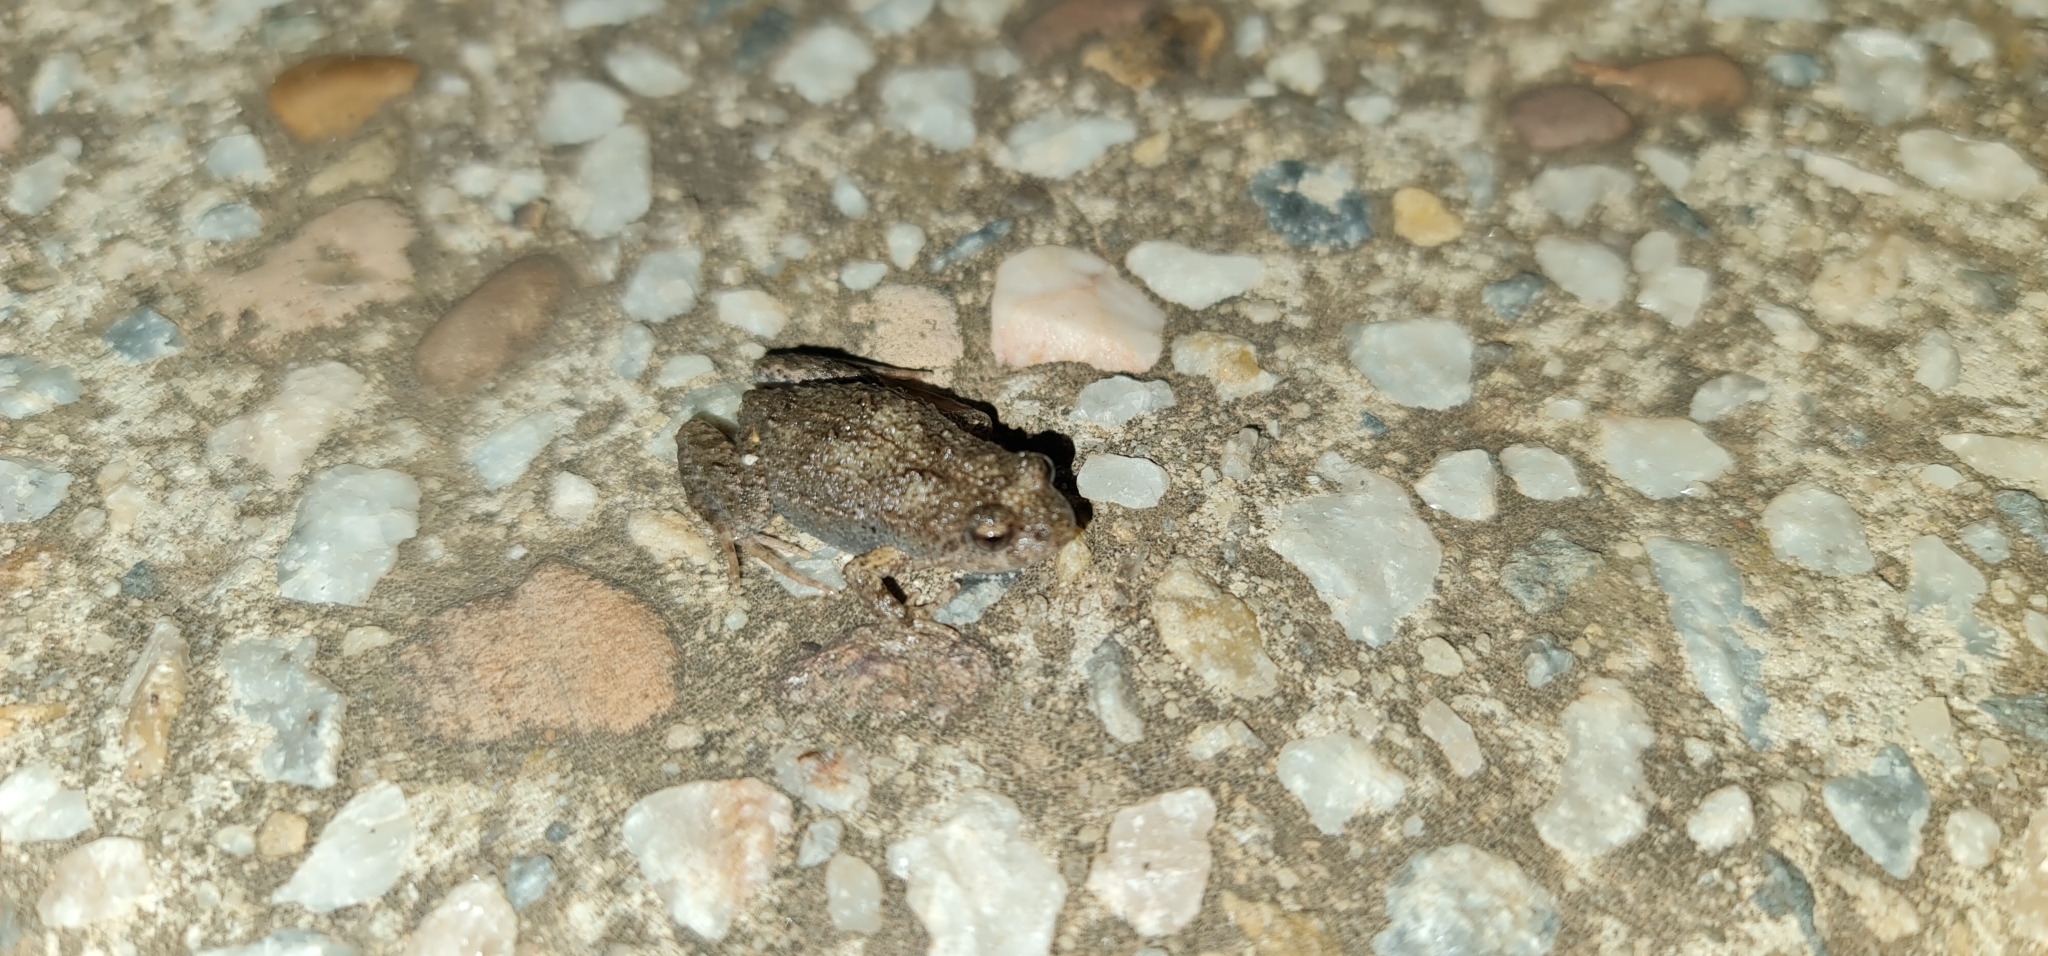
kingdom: Animalia
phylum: Chordata
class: Amphibia
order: Anura
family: Myobatrachidae
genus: Crinia
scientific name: Crinia signifera
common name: Brown froglet
